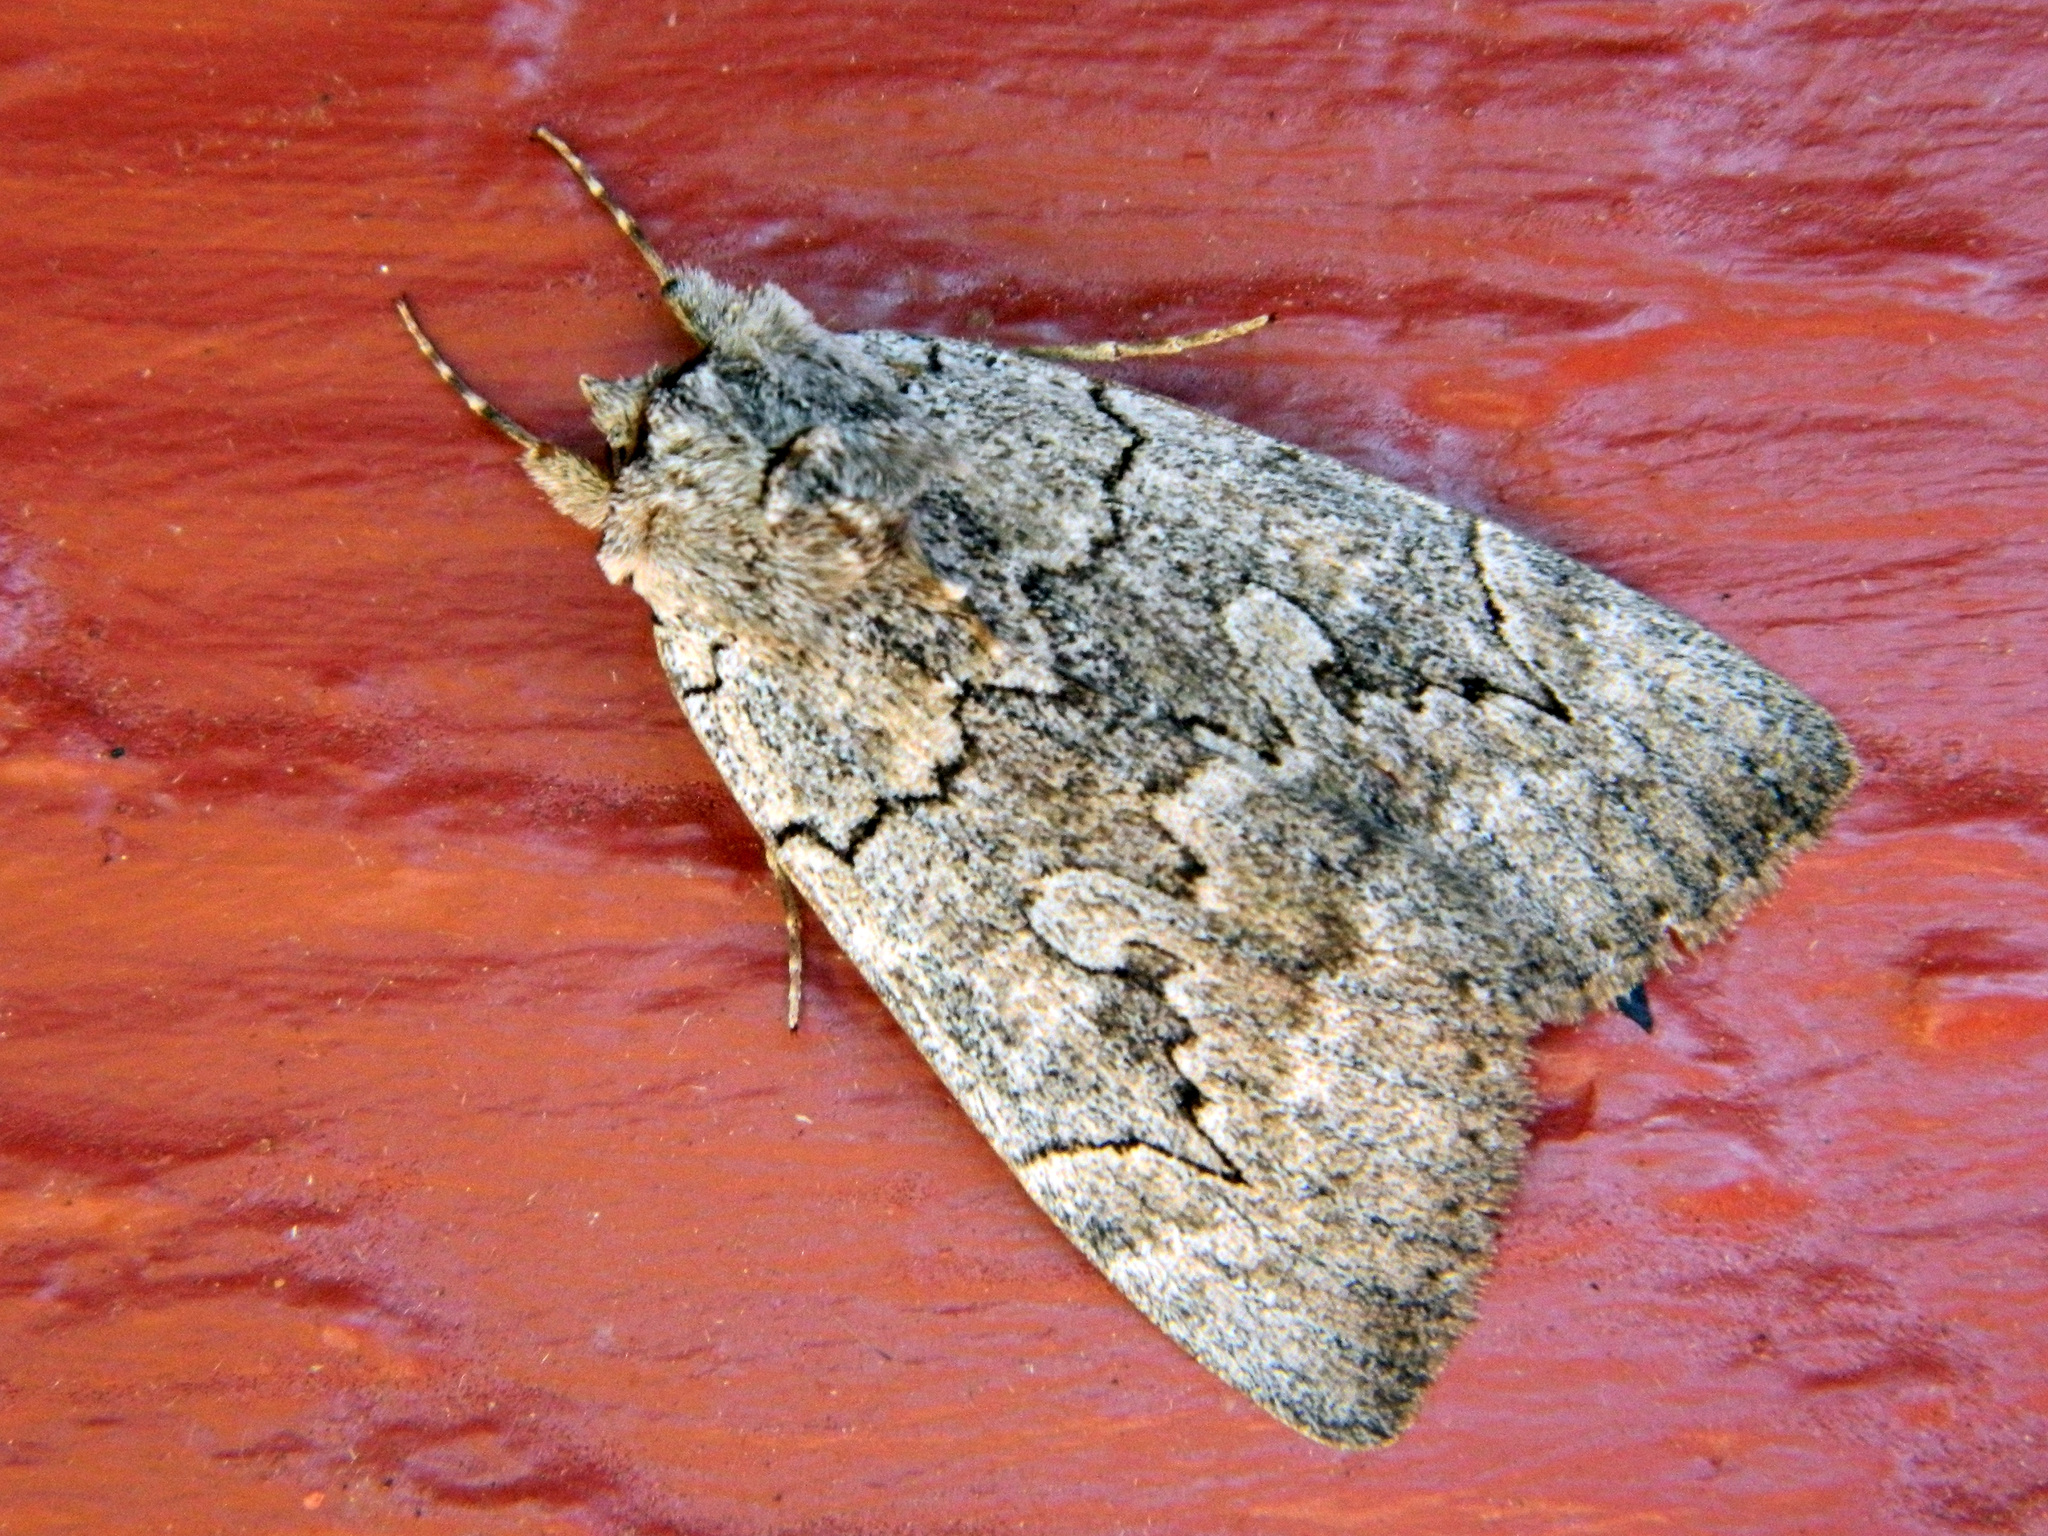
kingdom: Animalia
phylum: Arthropoda
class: Insecta
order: Lepidoptera
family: Erebidae
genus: Catocala
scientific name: Catocala concumbens
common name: Pink underwing
